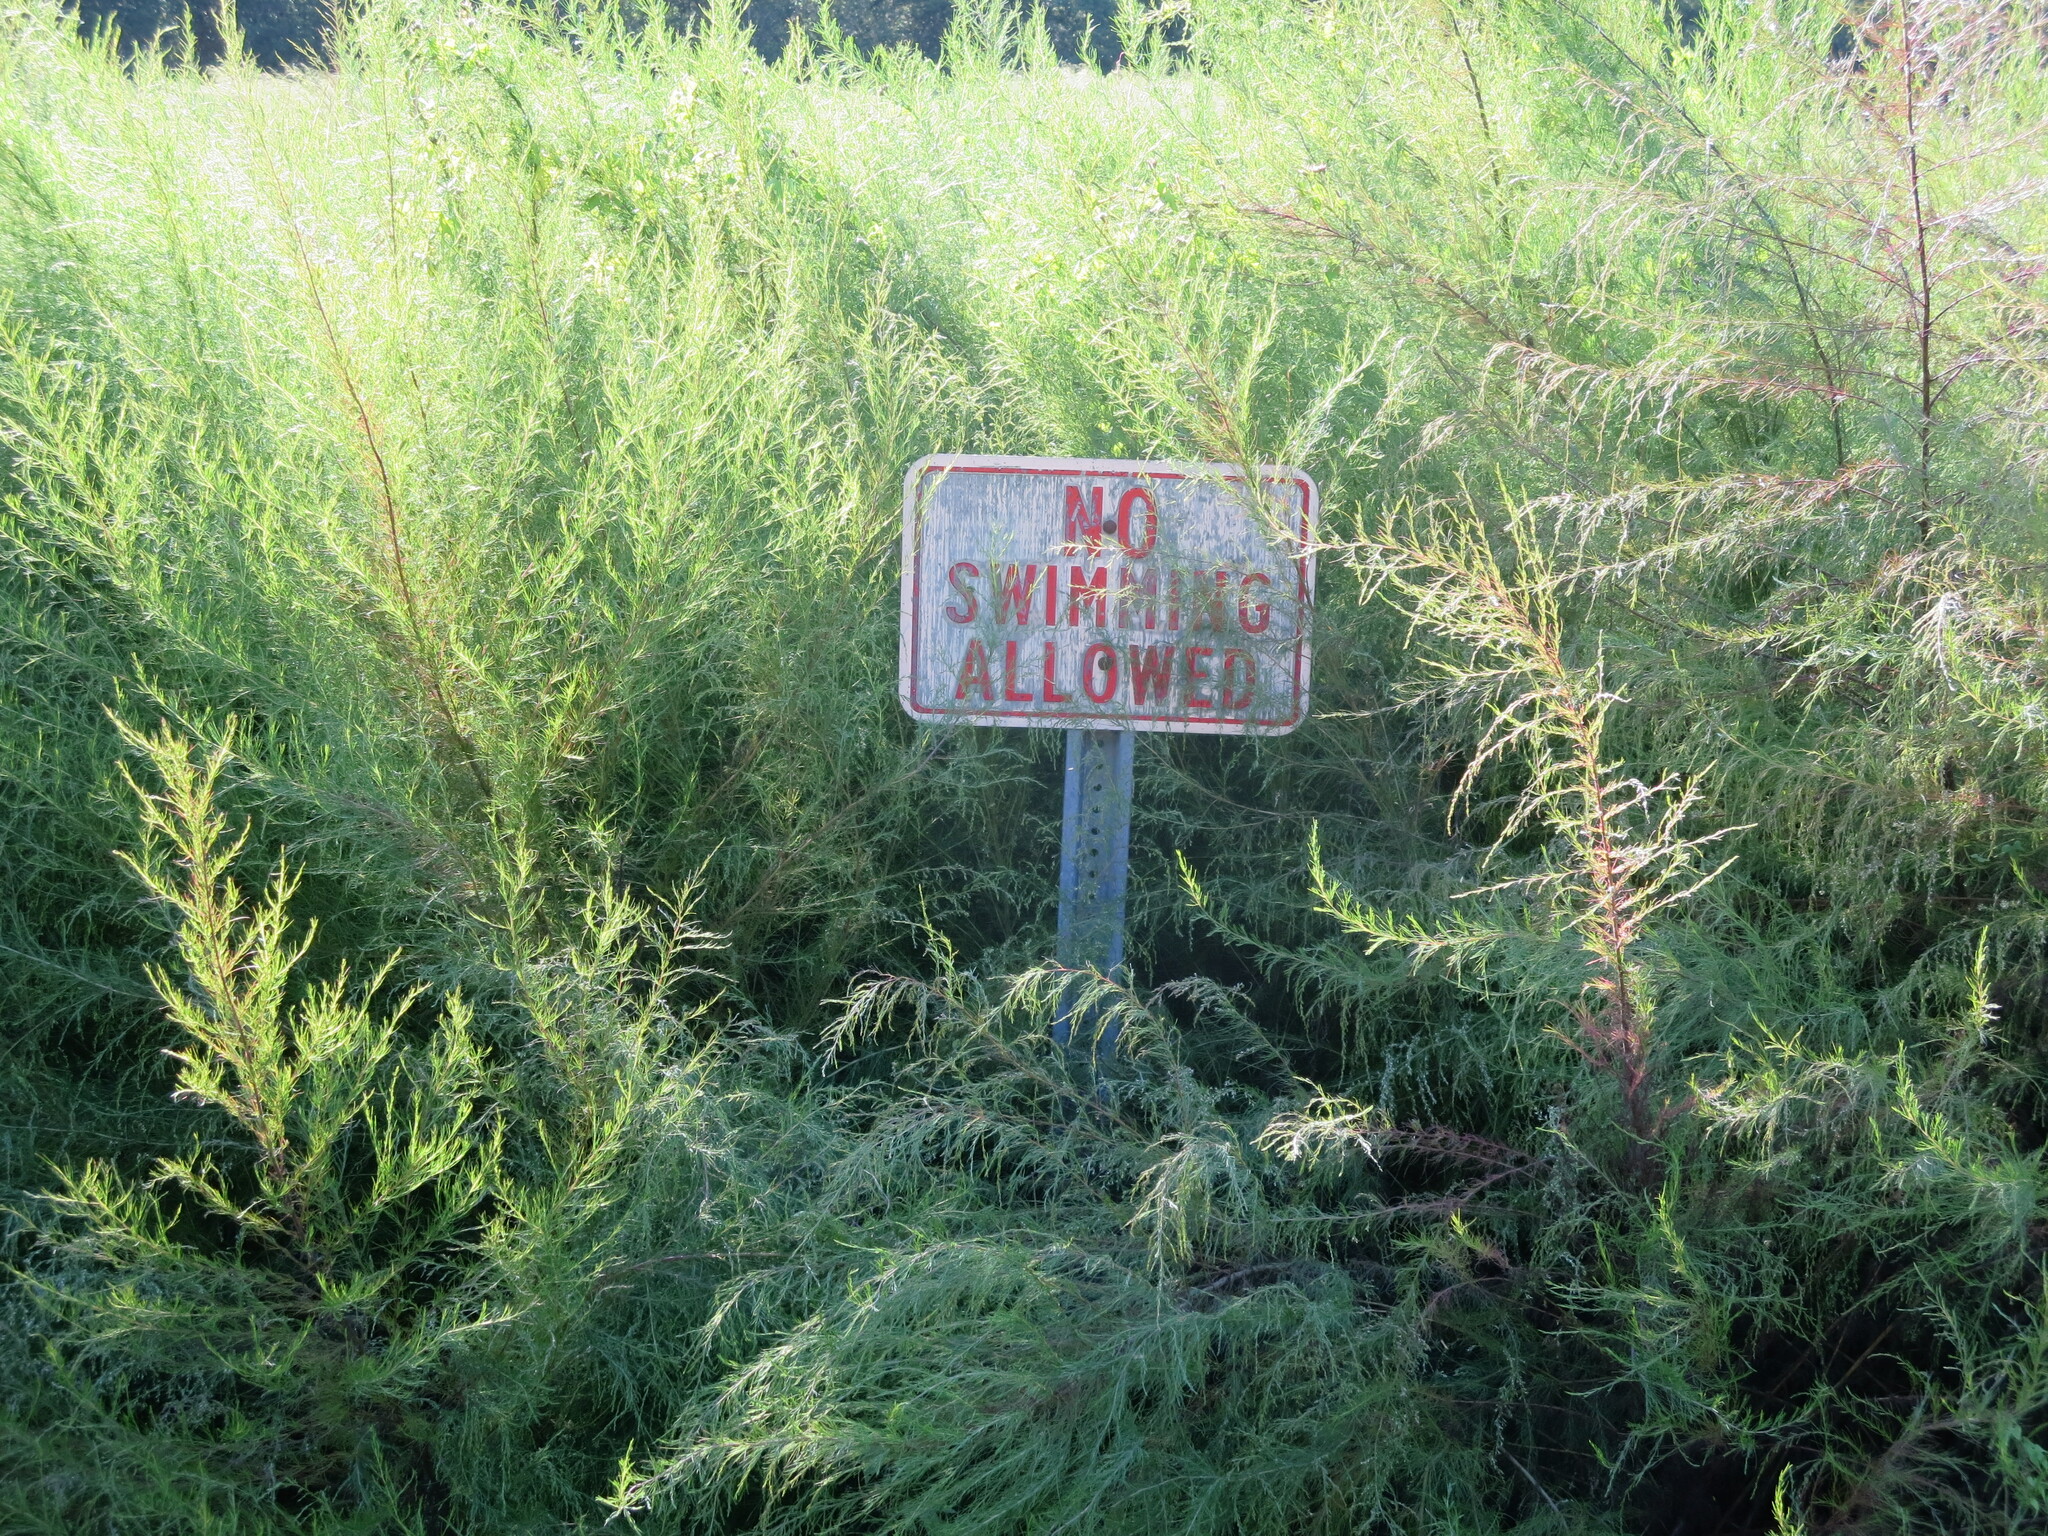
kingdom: Plantae
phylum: Tracheophyta
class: Magnoliopsida
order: Asterales
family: Asteraceae
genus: Eupatorium
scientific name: Eupatorium capillifolium
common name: Dog-fennel
